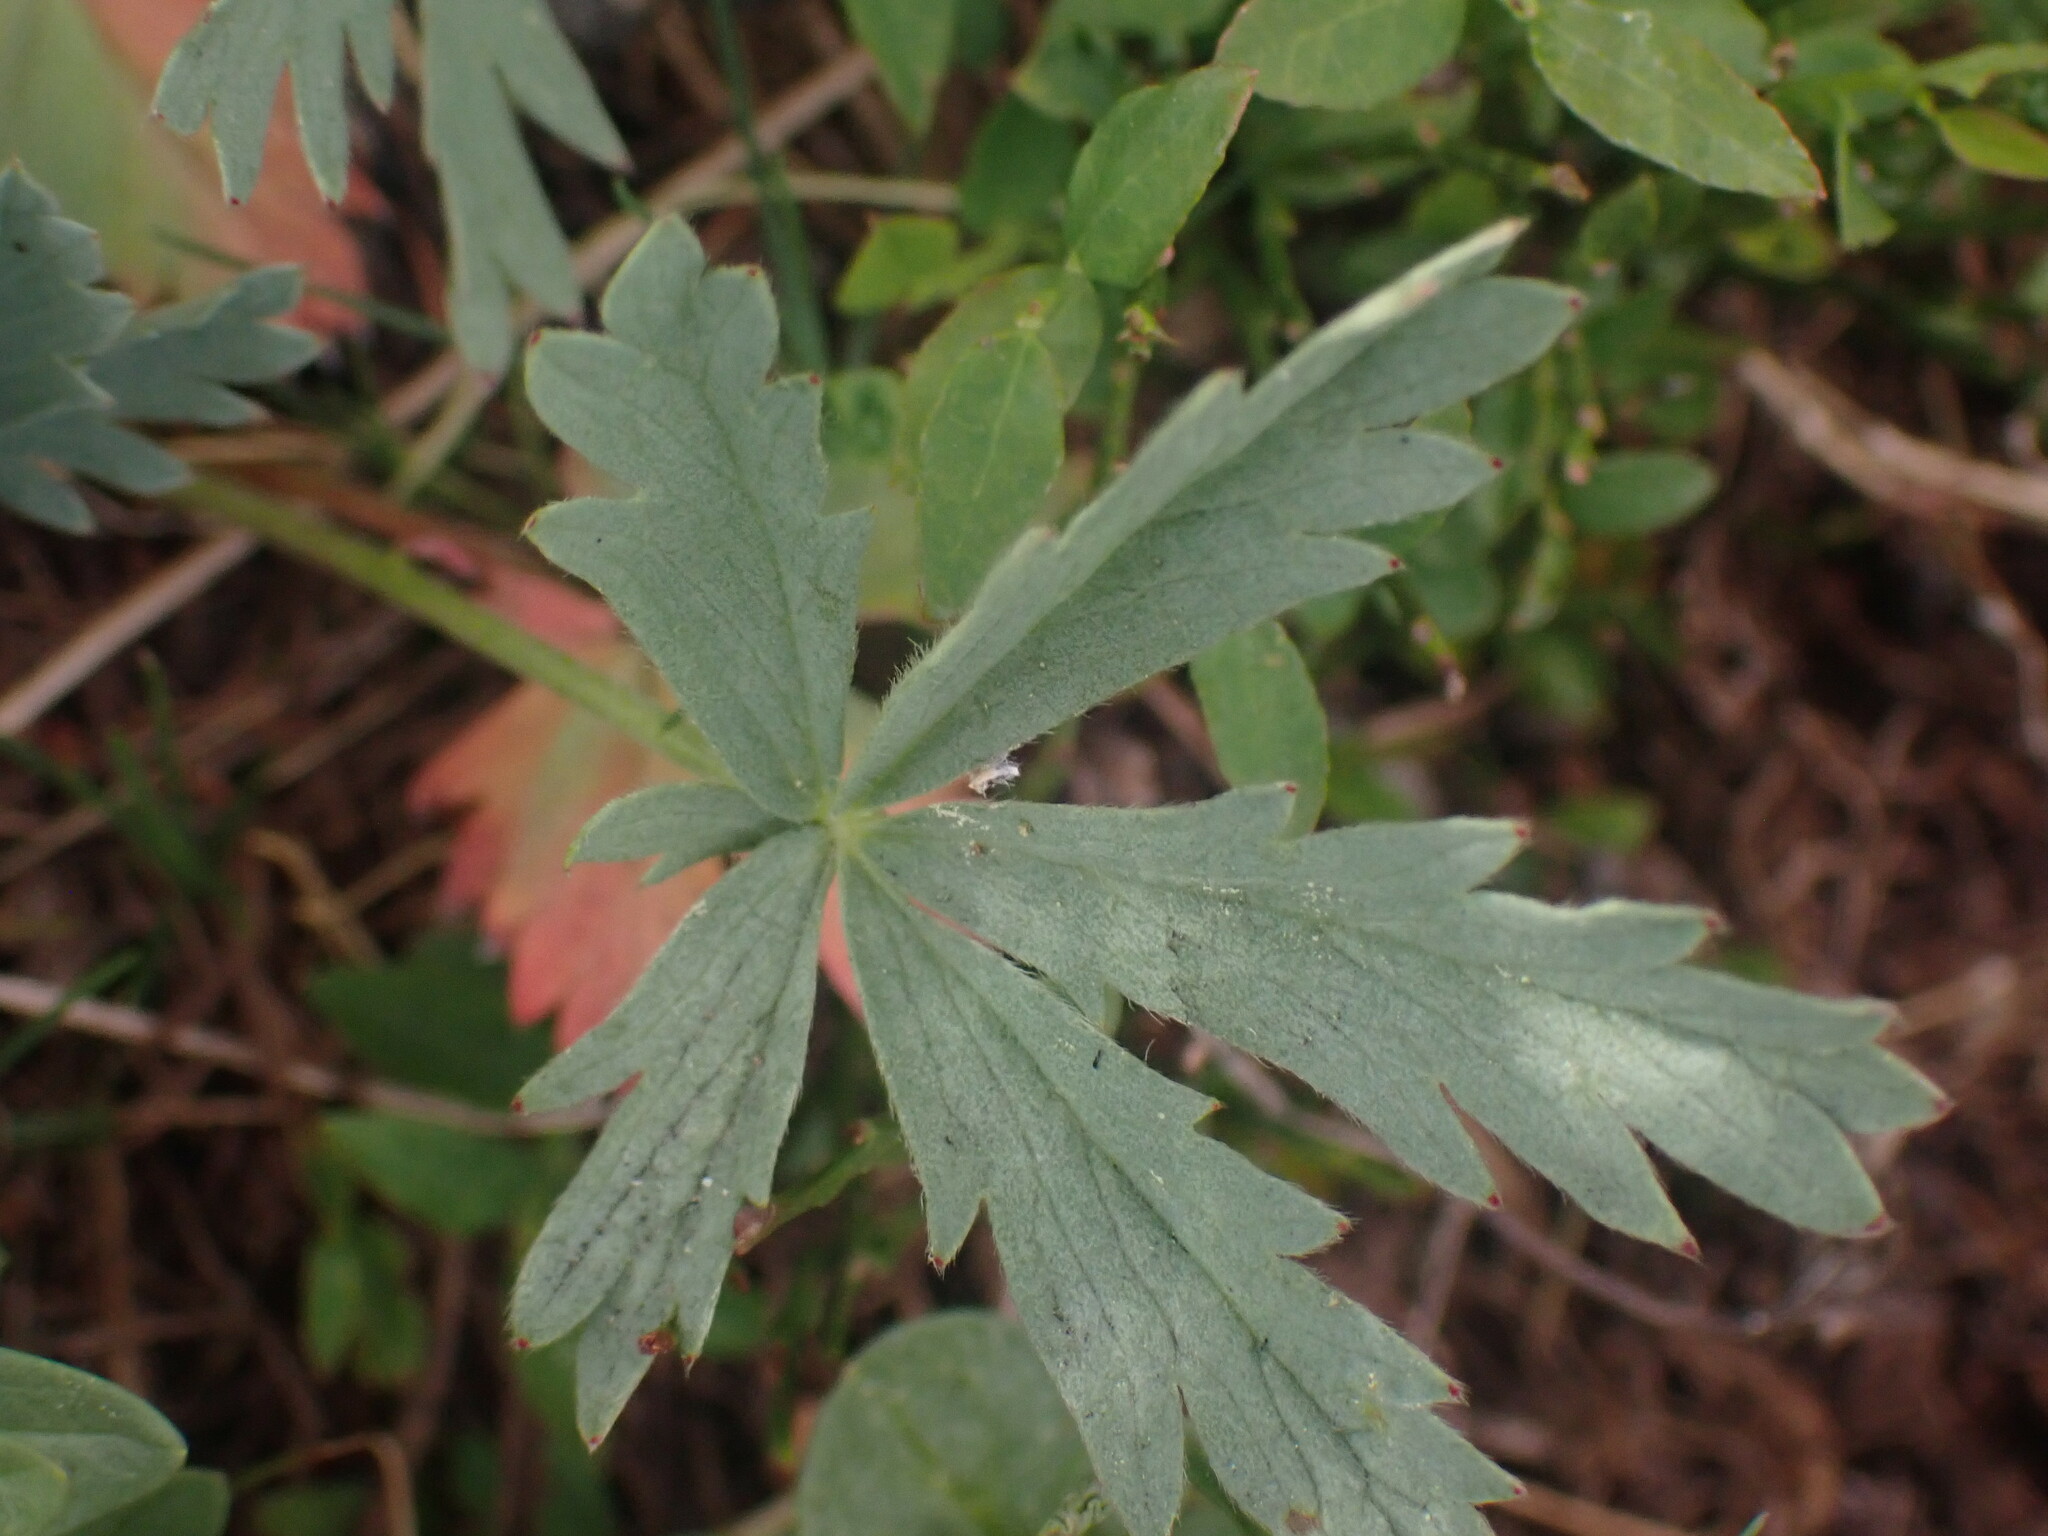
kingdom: Plantae
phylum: Tracheophyta
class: Magnoliopsida
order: Rosales
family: Rosaceae
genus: Potentilla
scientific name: Potentilla glaucophylla
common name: Blue-leaved cinquefoil
